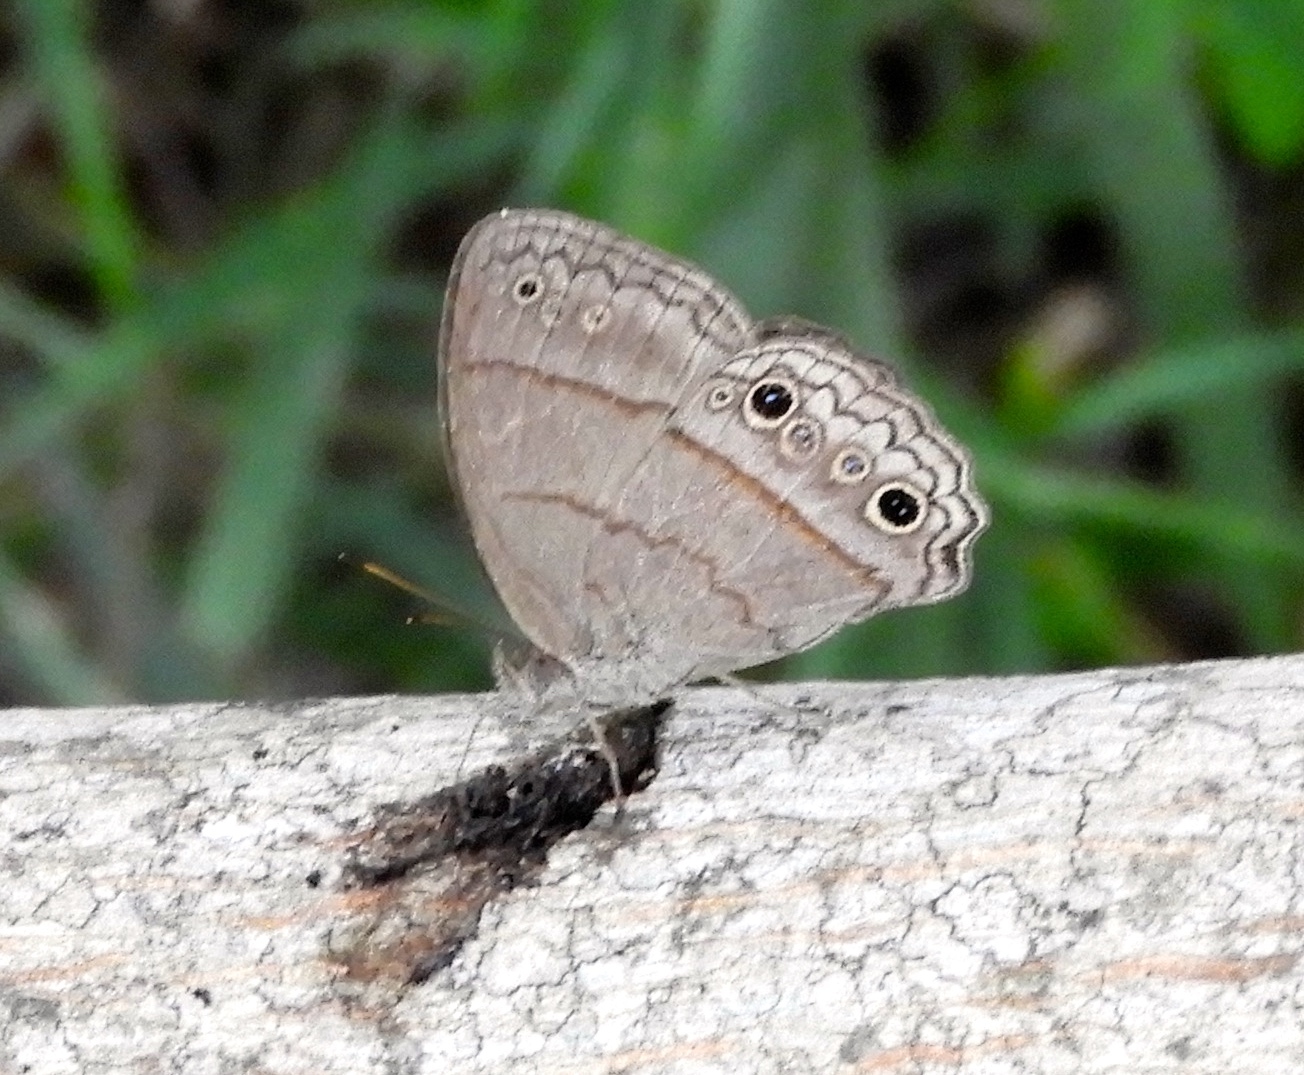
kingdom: Animalia
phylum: Arthropoda
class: Insecta
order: Lepidoptera
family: Nymphalidae
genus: Vareuptychia
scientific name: Vareuptychia similis
